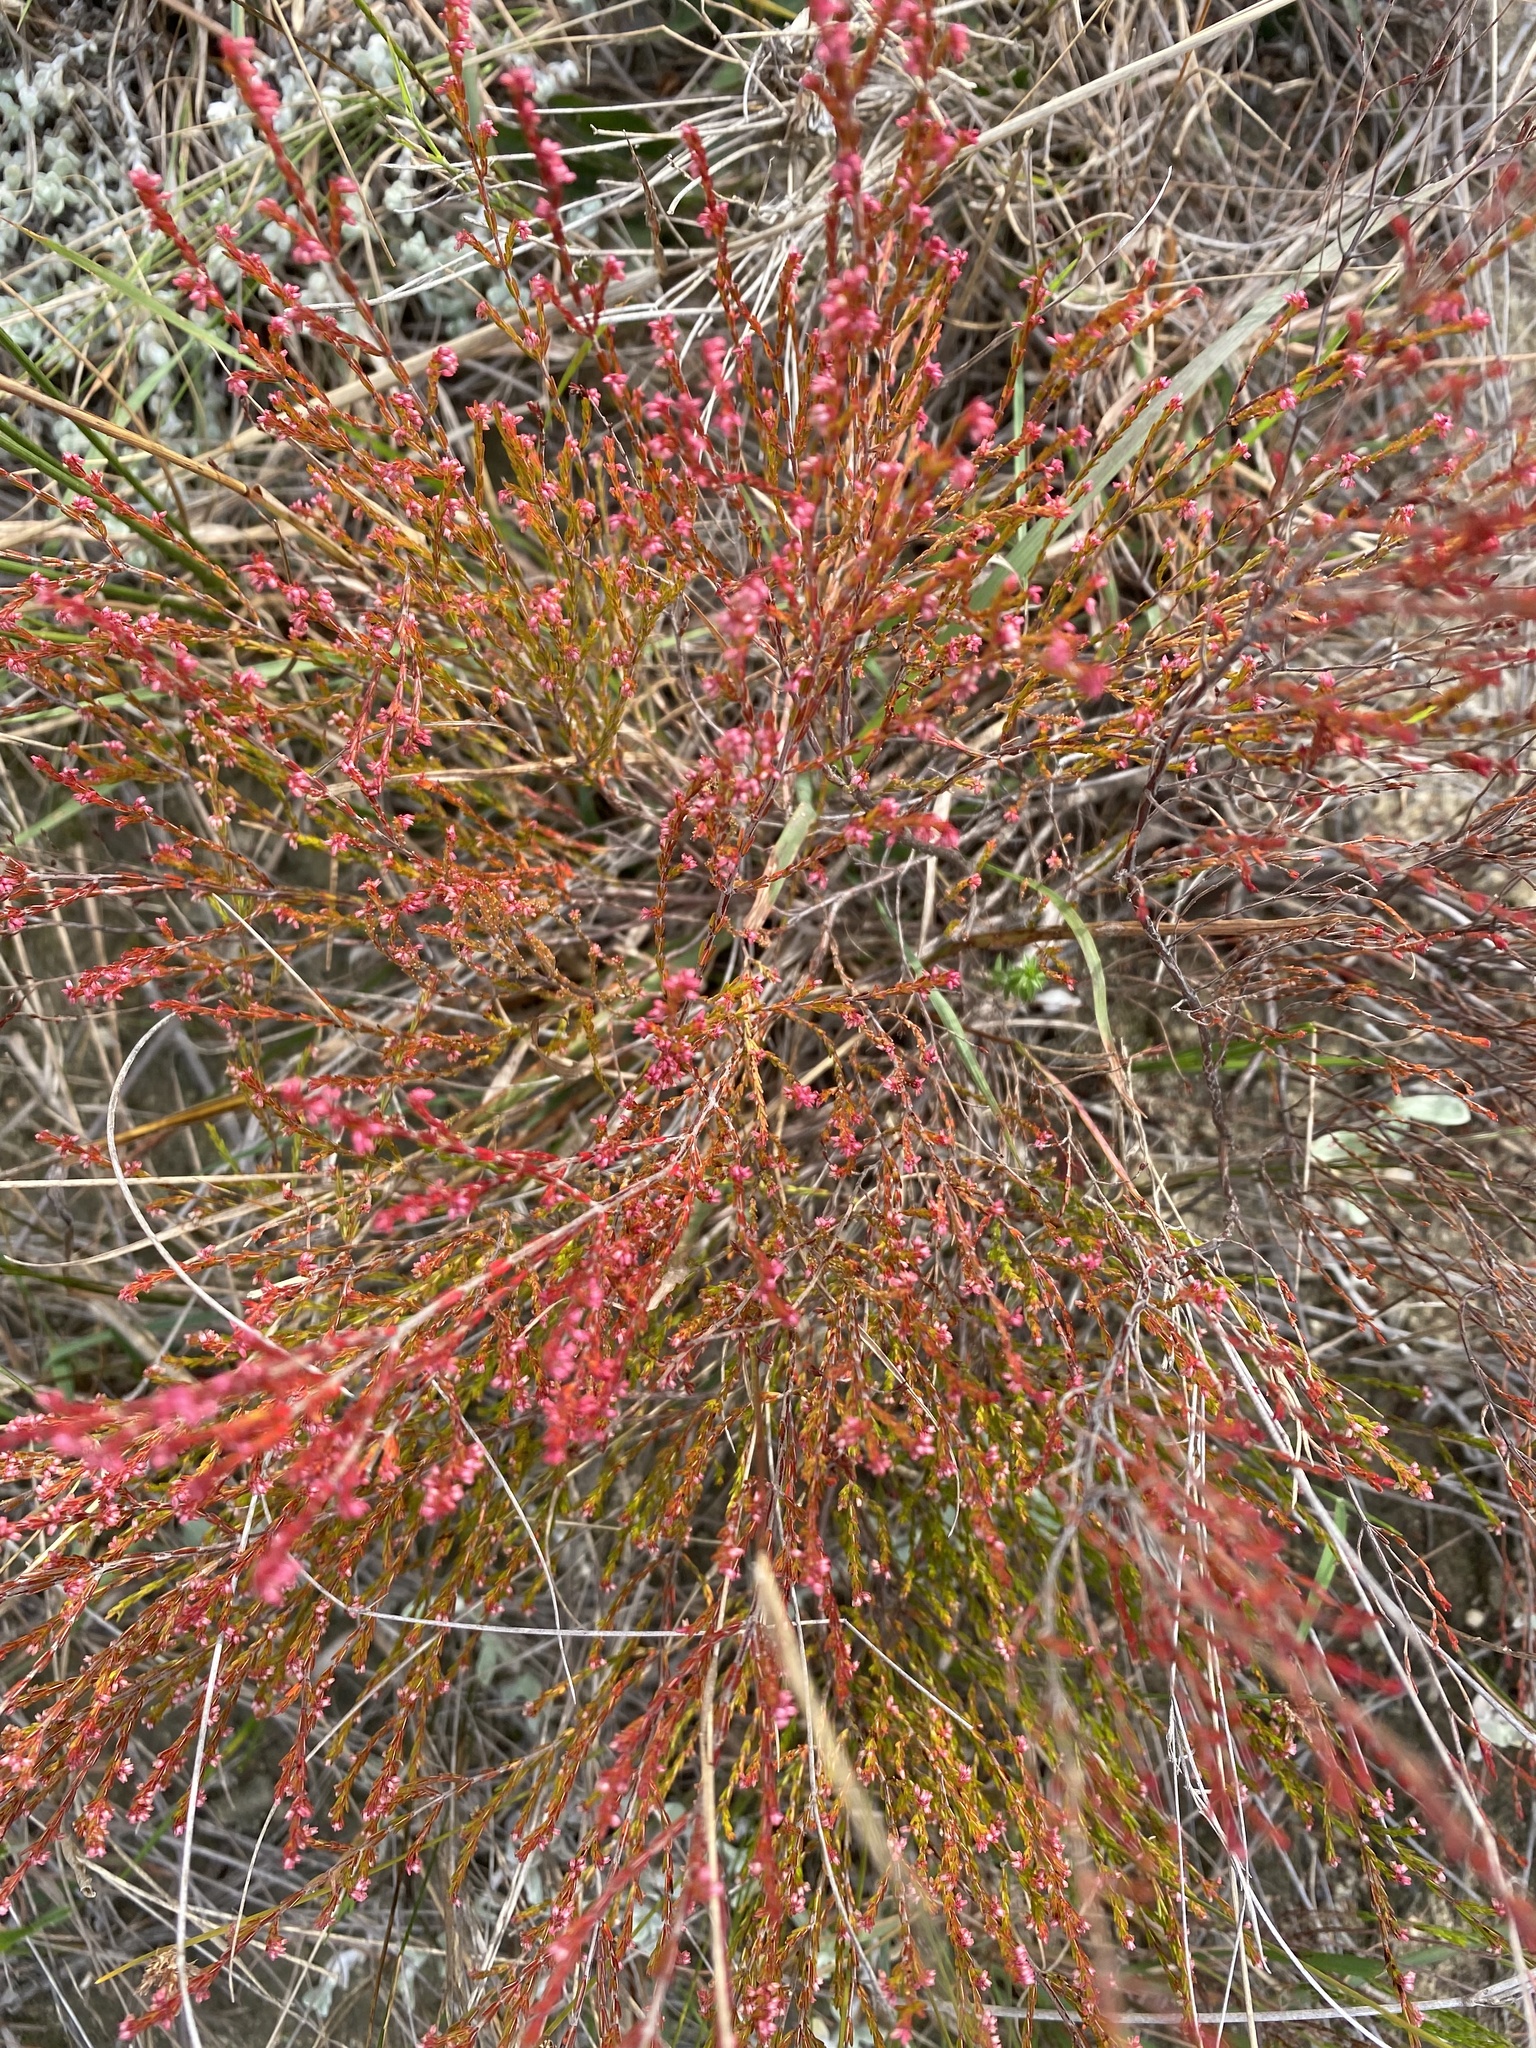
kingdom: Plantae
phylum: Tracheophyta
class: Magnoliopsida
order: Ericales
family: Ericaceae
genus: Erica
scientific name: Erica anguliger
